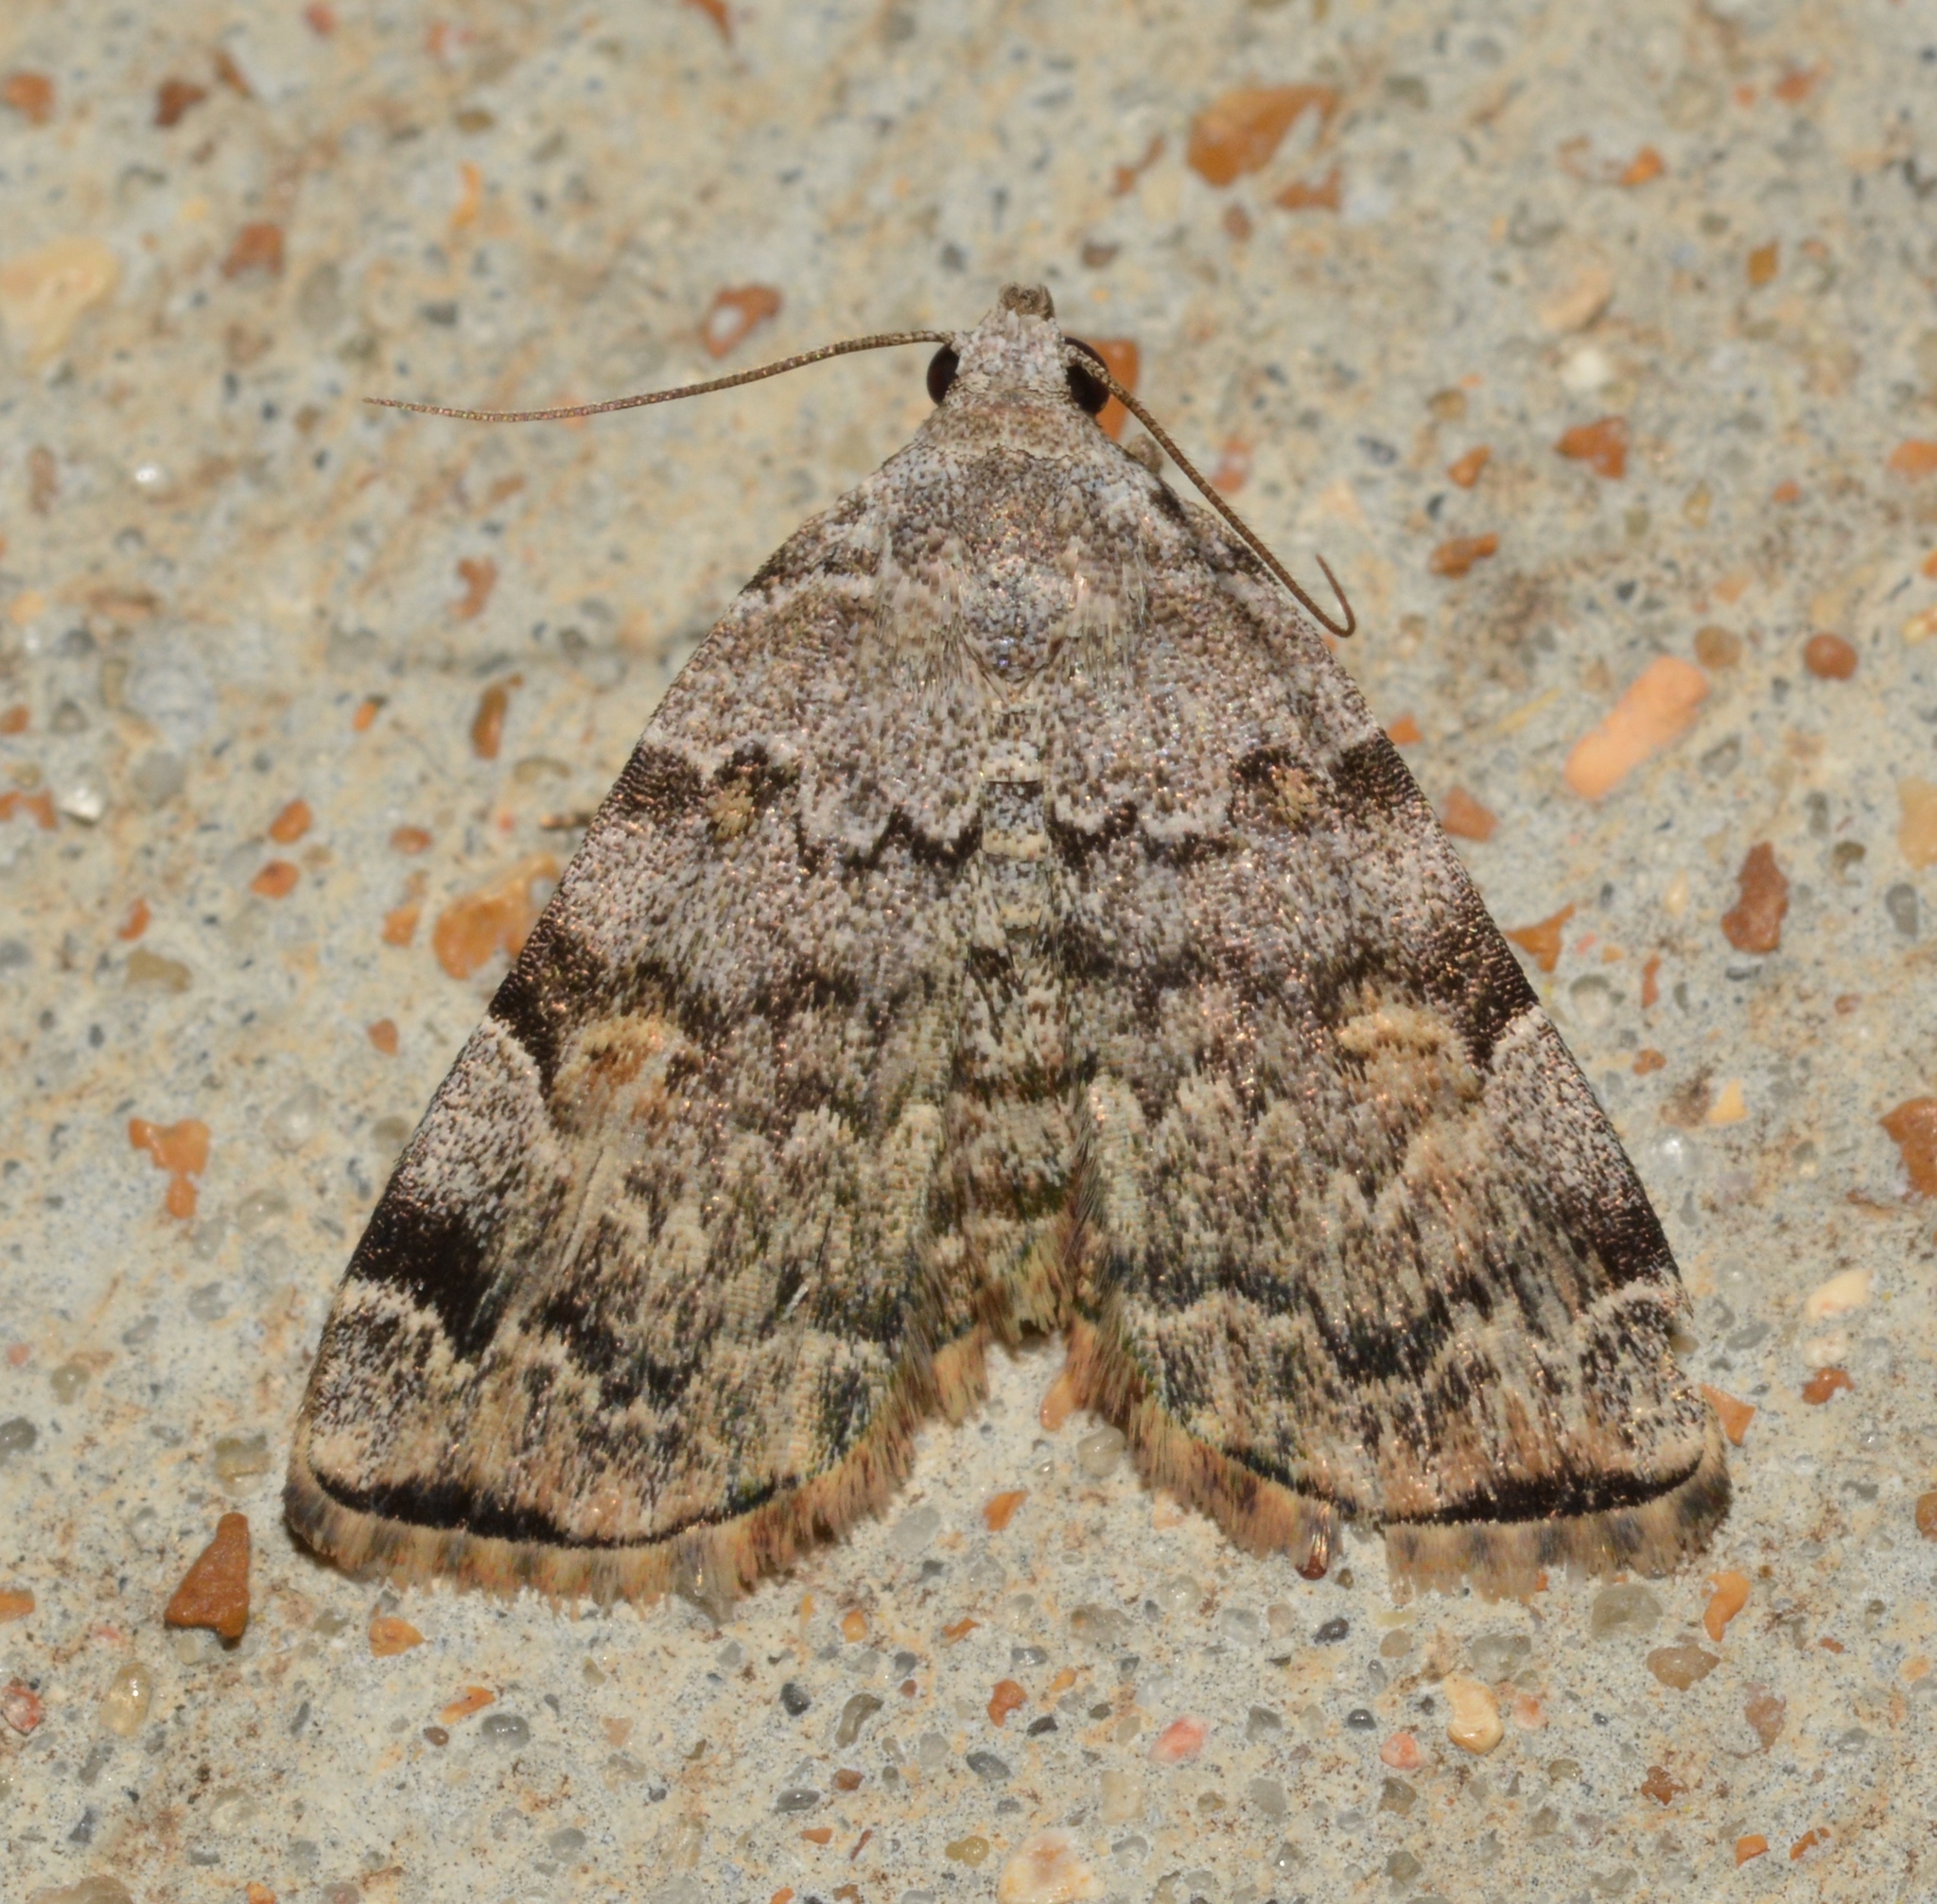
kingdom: Animalia
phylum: Arthropoda
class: Insecta
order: Lepidoptera
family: Erebidae
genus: Idia
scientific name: Idia americalis
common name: American idia moth
